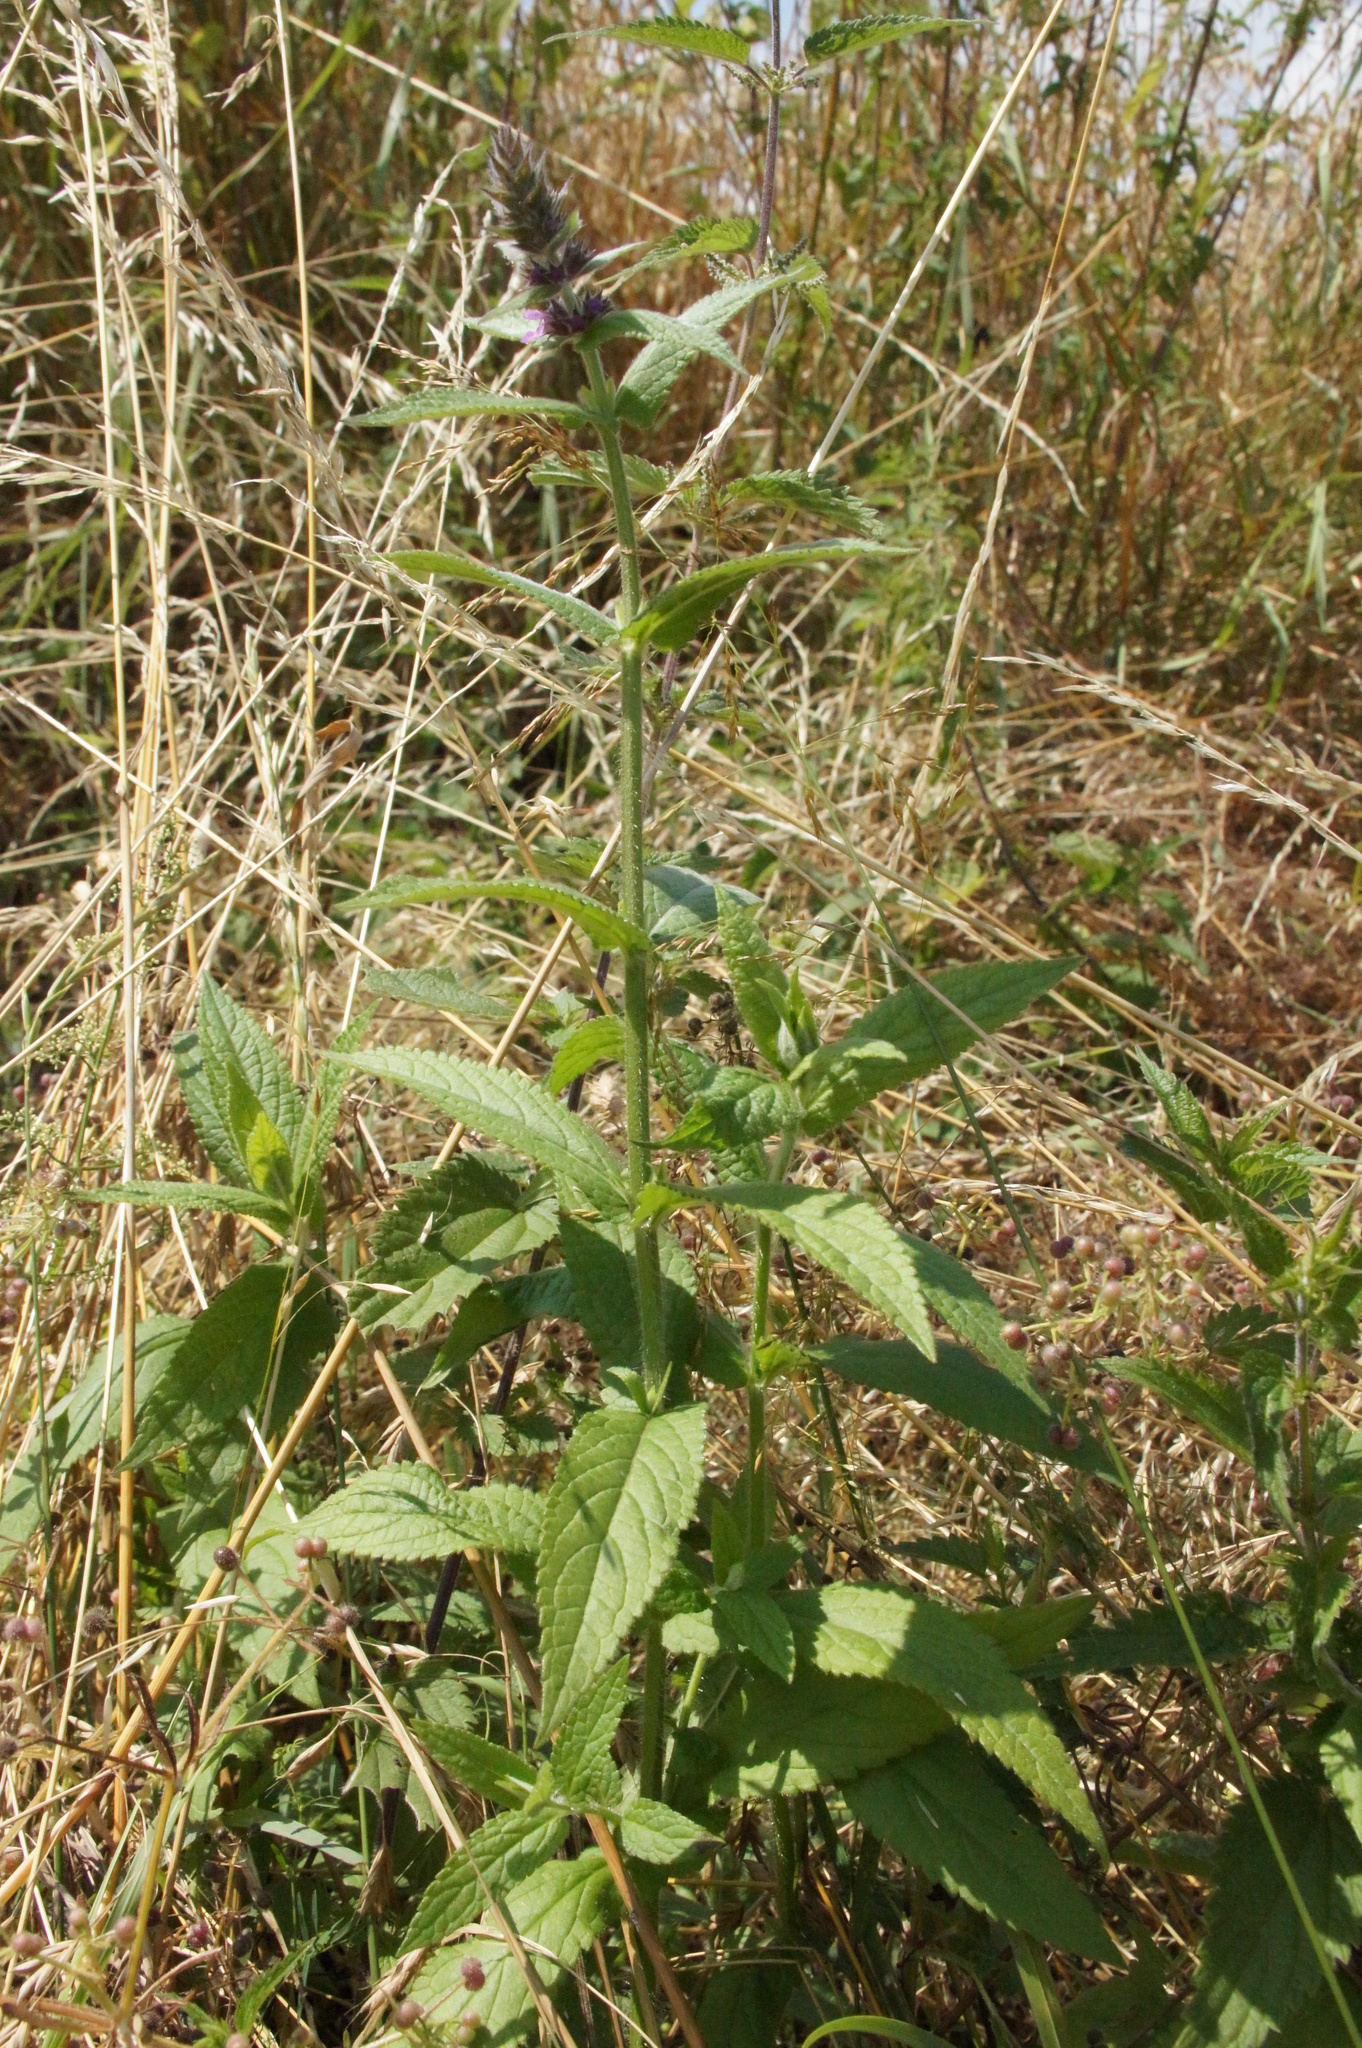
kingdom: Plantae
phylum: Tracheophyta
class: Magnoliopsida
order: Lamiales
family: Lamiaceae
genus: Stachys
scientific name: Stachys sylvatica
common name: Hedge woundwort
